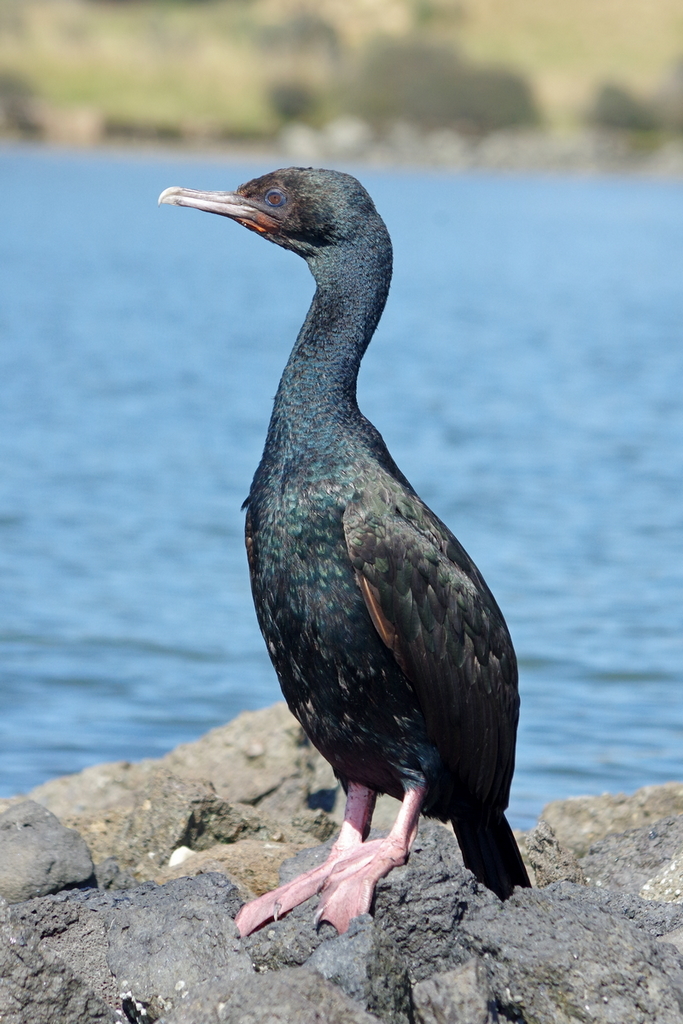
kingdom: Animalia
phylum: Chordata
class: Aves
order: Suliformes
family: Phalacrocoracidae
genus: Leucocarbo
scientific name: Leucocarbo chalconotus
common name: Stewart shag
